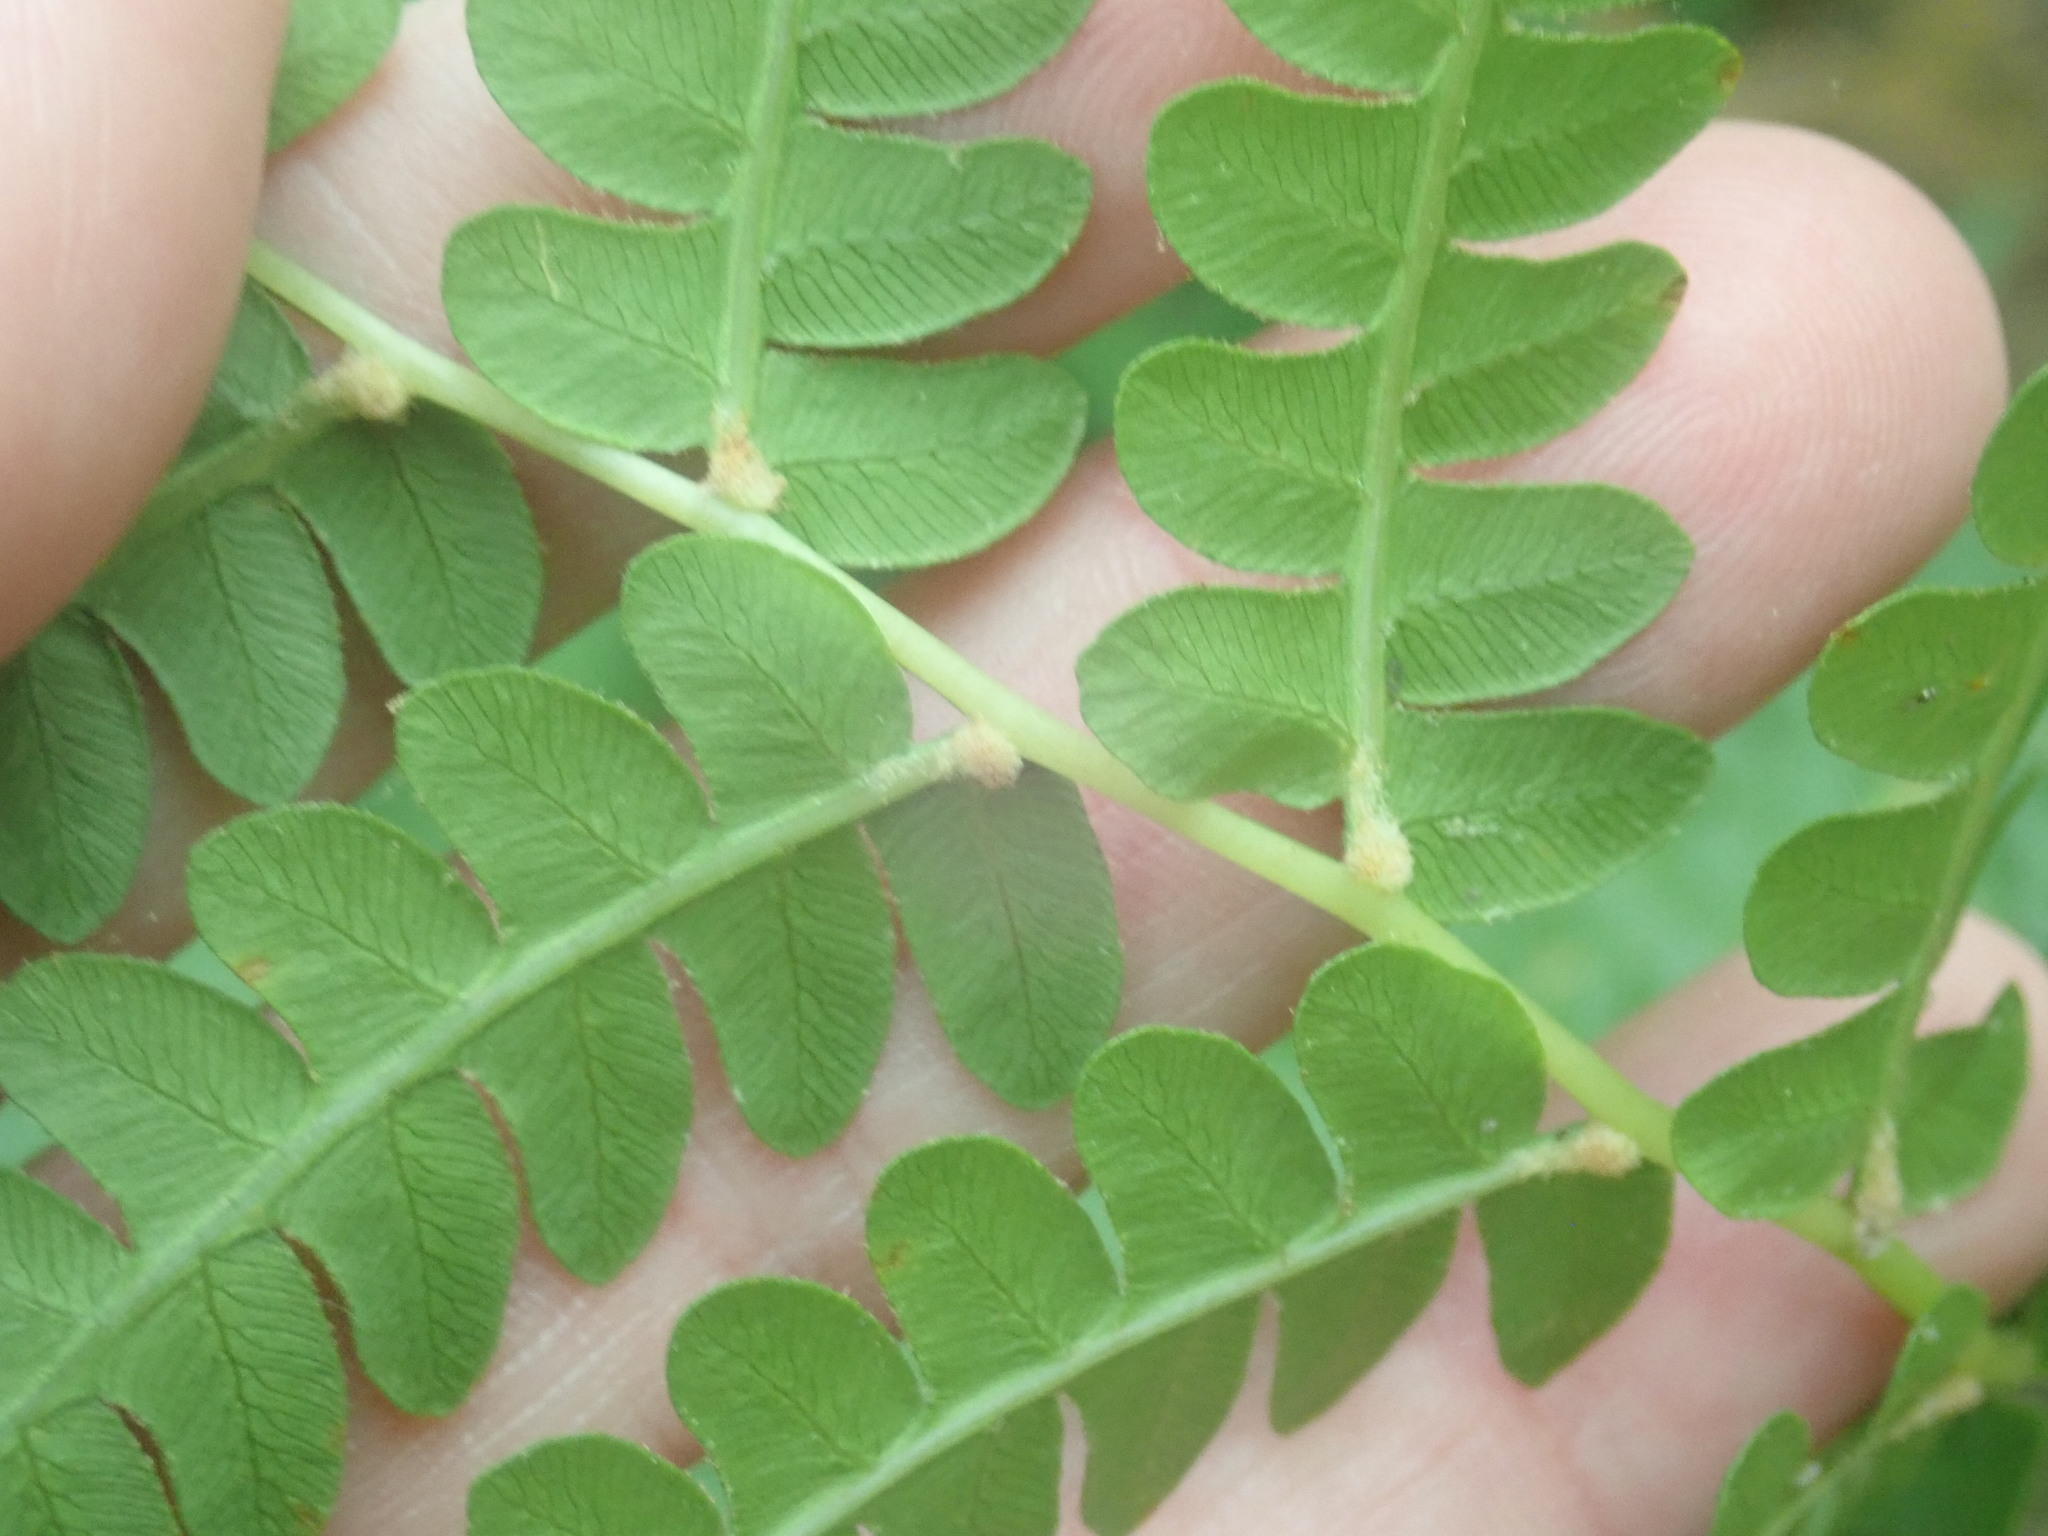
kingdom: Plantae
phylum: Tracheophyta
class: Polypodiopsida
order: Osmundales
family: Osmundaceae
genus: Osmundastrum
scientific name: Osmundastrum cinnamomeum
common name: Cinnamon fern
